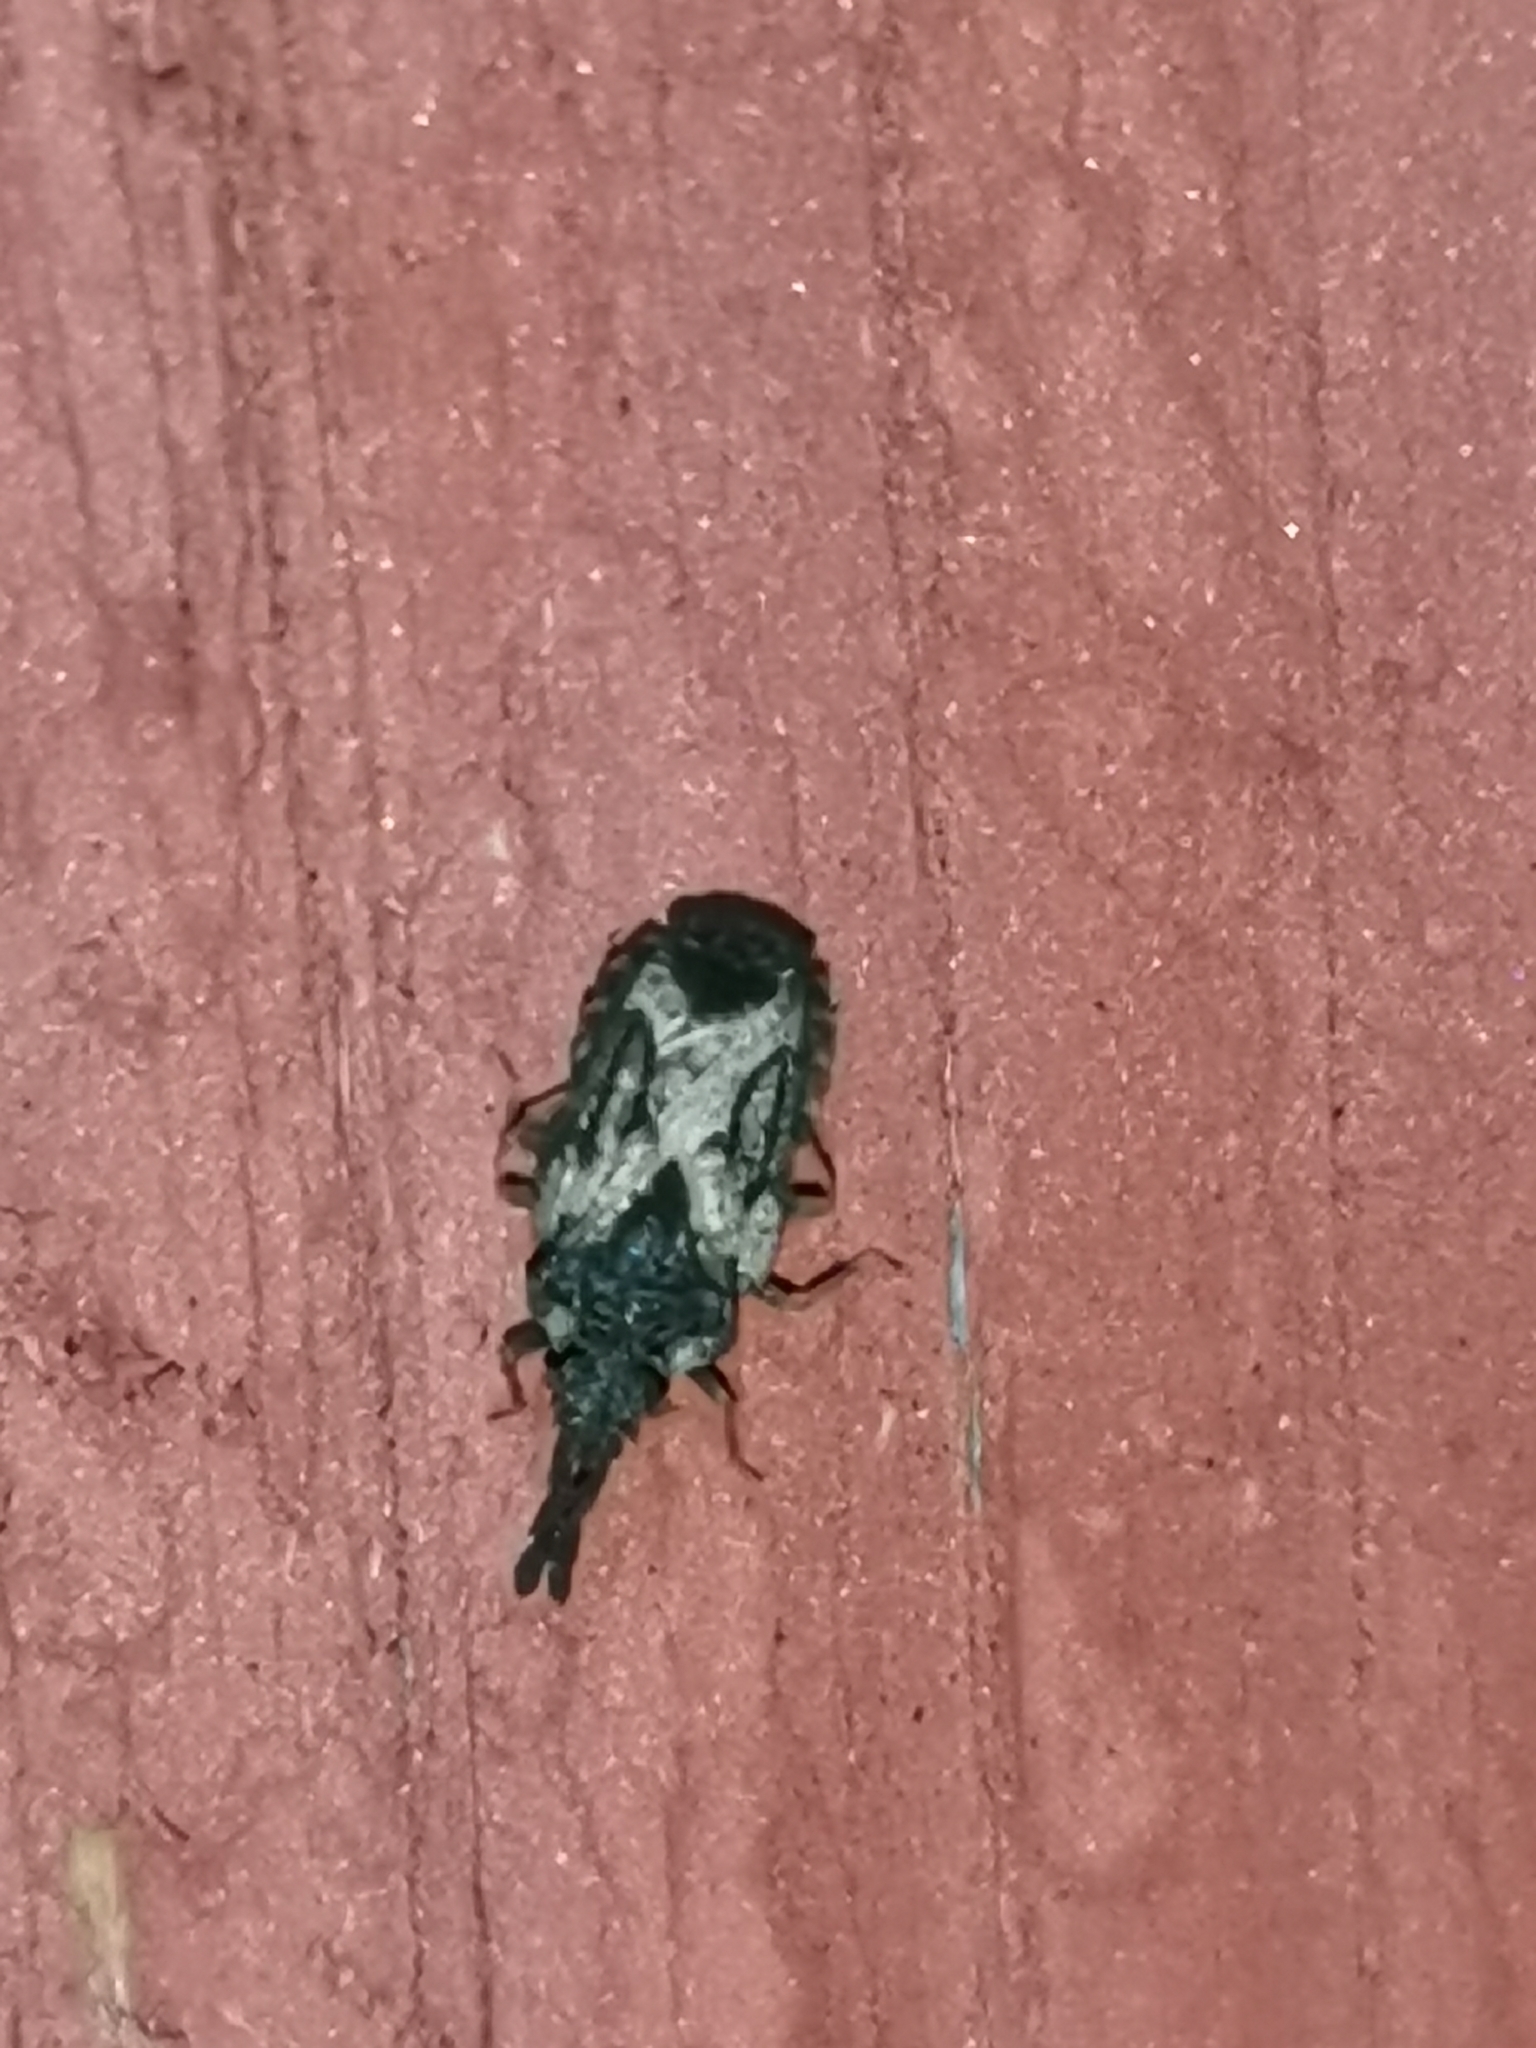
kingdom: Animalia
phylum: Arthropoda
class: Insecta
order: Hemiptera
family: Aradidae
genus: Aradus
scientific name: Aradus depressus
